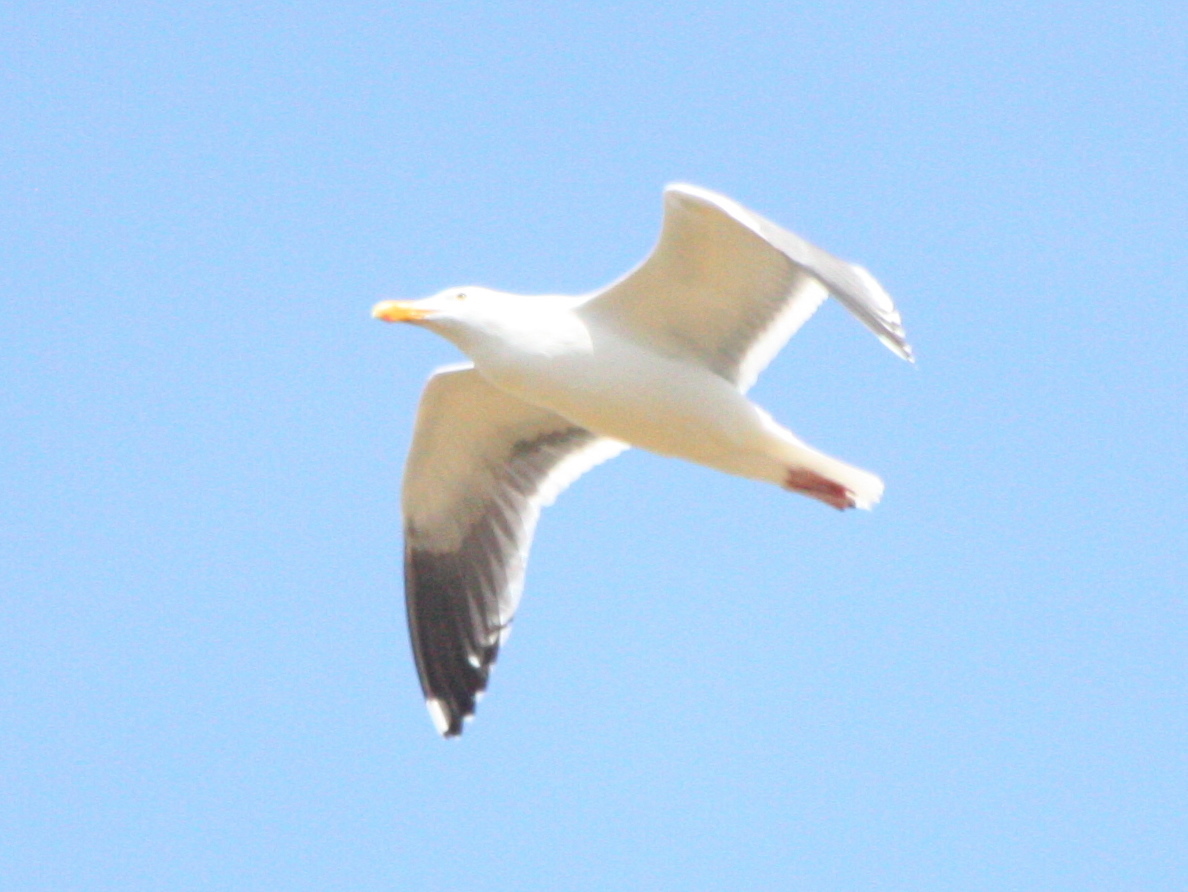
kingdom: Animalia
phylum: Chordata
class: Aves
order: Charadriiformes
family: Laridae
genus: Larus
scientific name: Larus occidentalis
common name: Western gull
